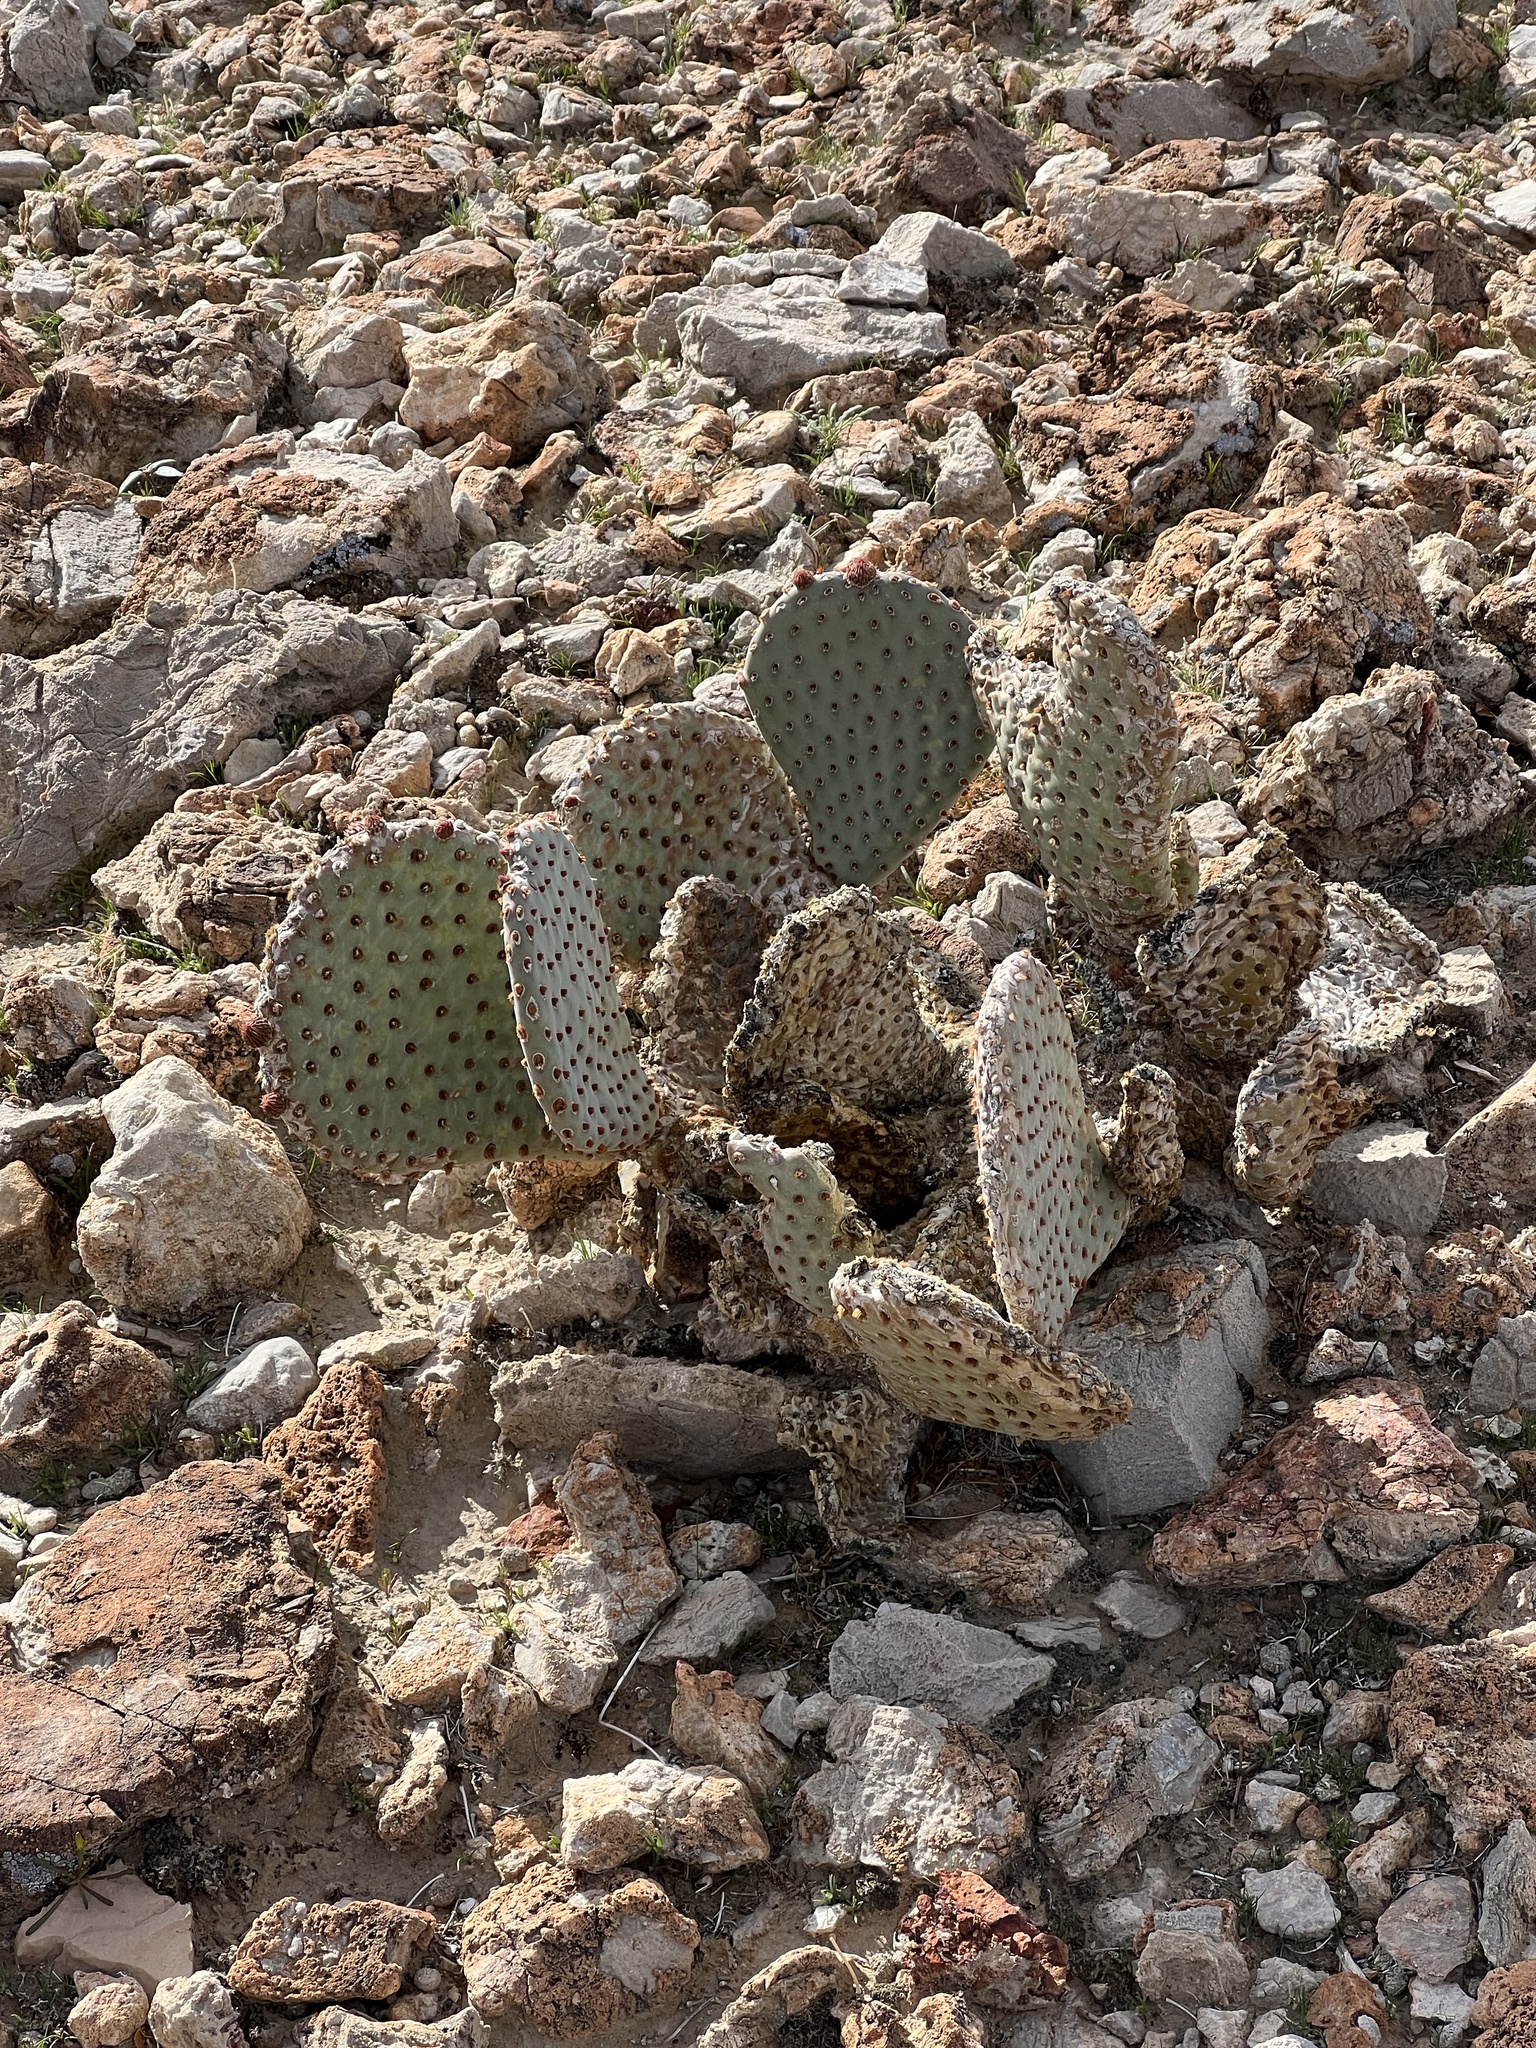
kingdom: Plantae
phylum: Tracheophyta
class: Magnoliopsida
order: Caryophyllales
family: Cactaceae
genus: Opuntia
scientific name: Opuntia basilaris
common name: Beavertail prickly-pear
